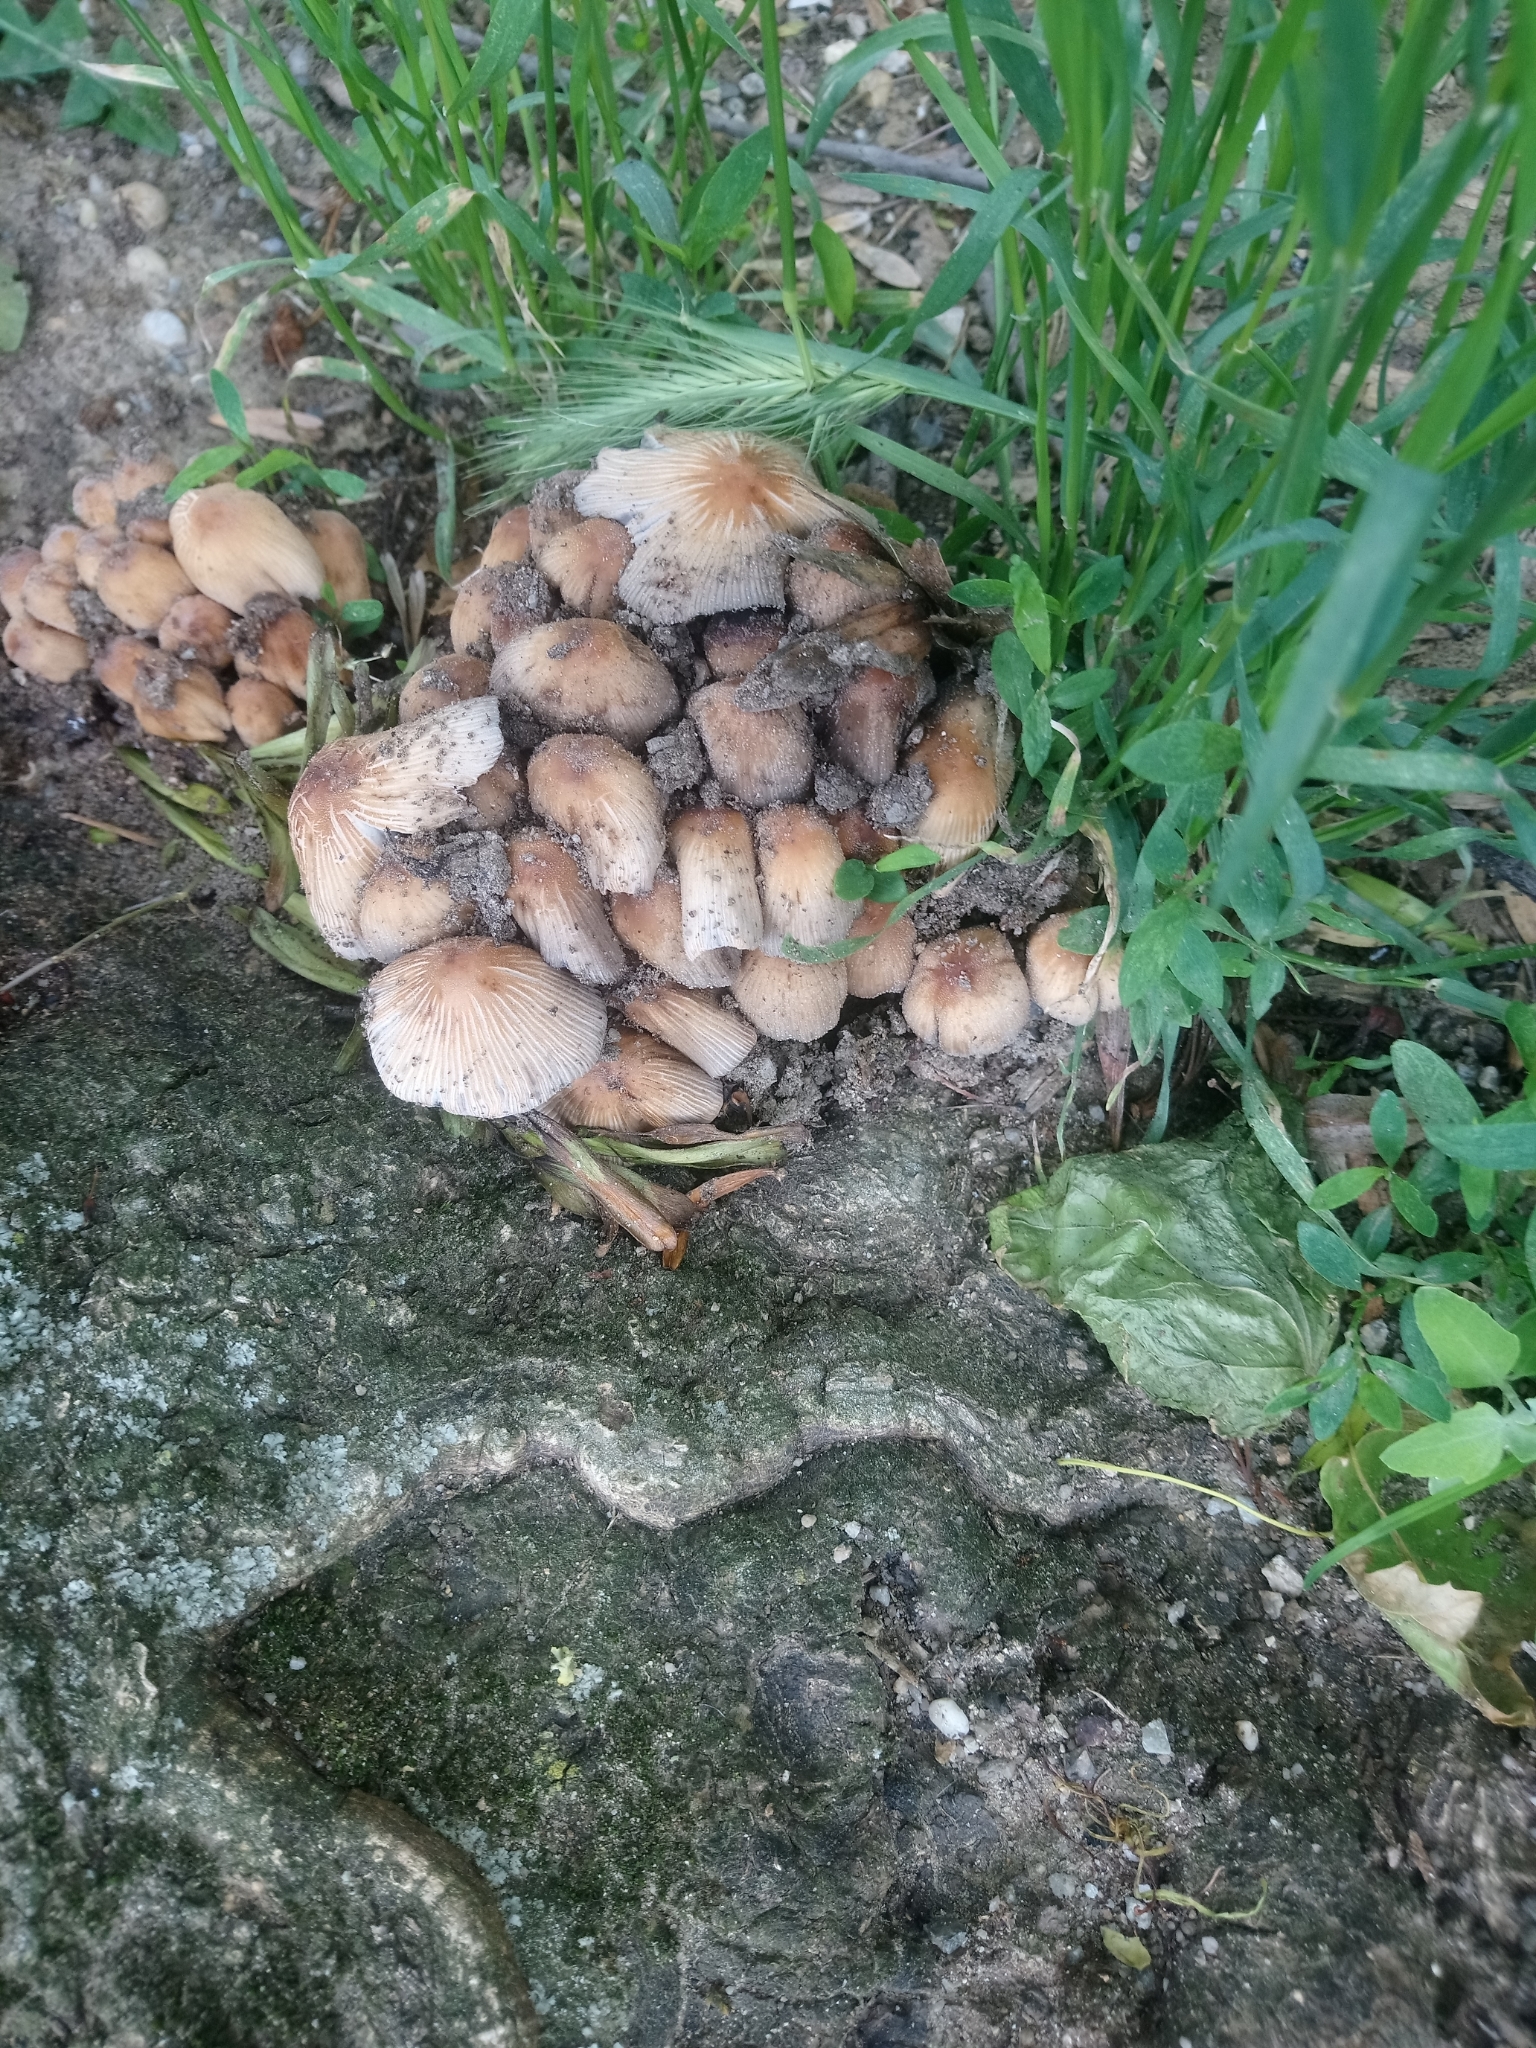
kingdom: Fungi
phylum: Basidiomycota
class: Agaricomycetes
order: Agaricales
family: Psathyrellaceae
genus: Coprinellus
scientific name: Coprinellus micaceus
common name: Glistening ink-cap
